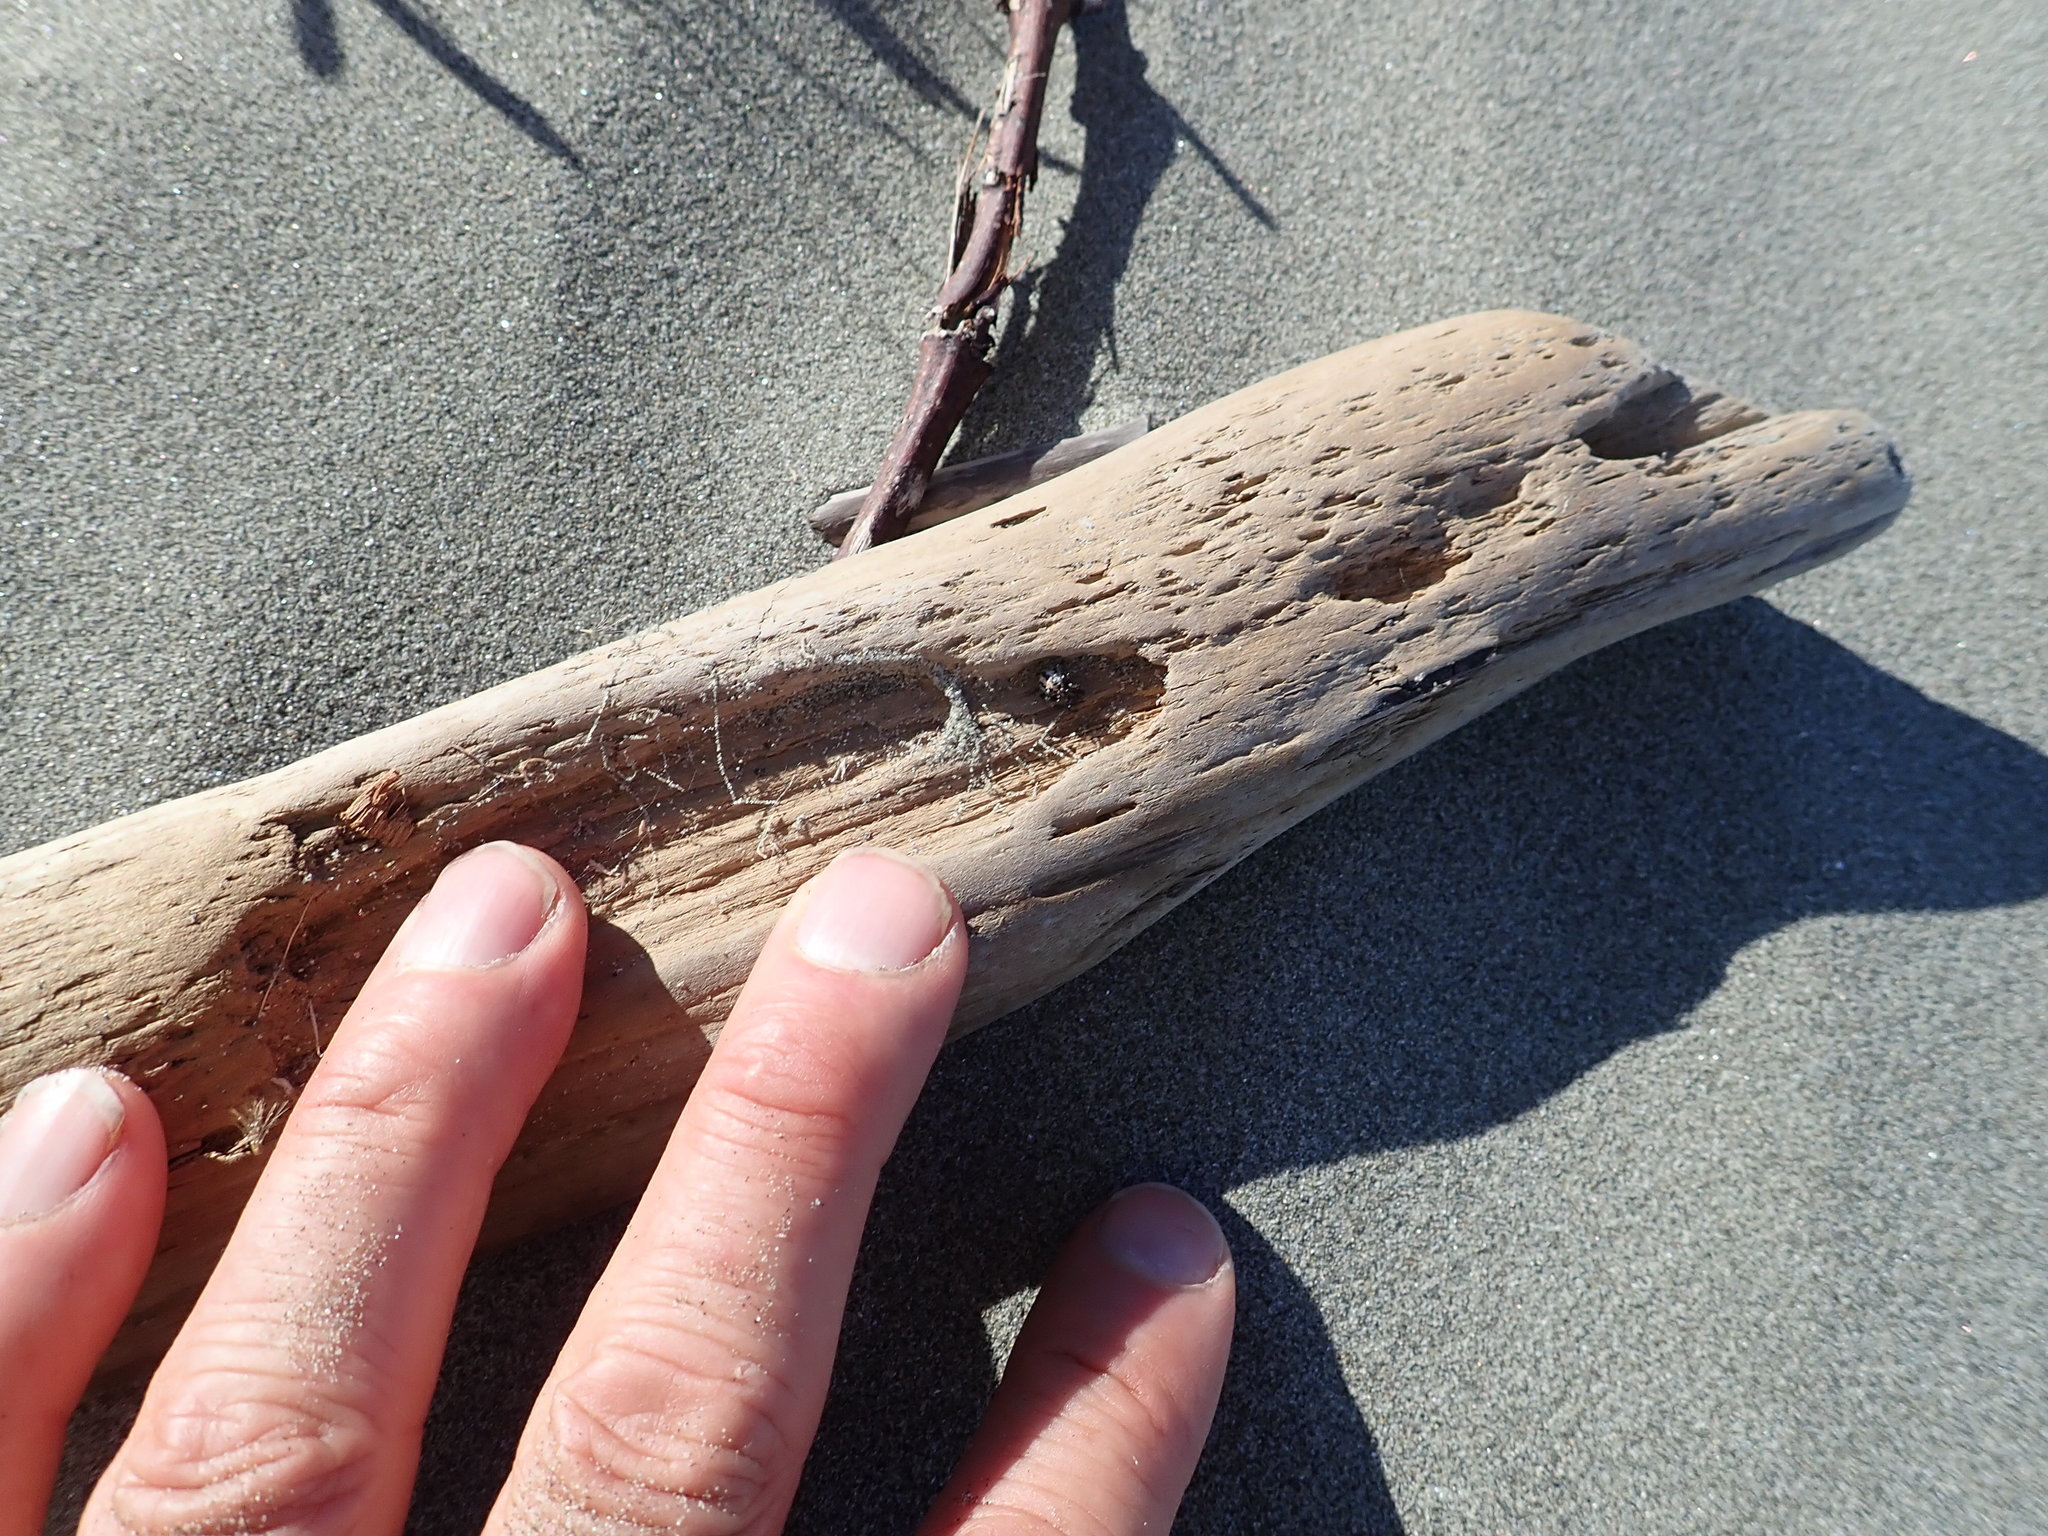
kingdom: Animalia
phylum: Arthropoda
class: Arachnida
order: Araneae
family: Theridiidae
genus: Latrodectus
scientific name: Latrodectus katipo
